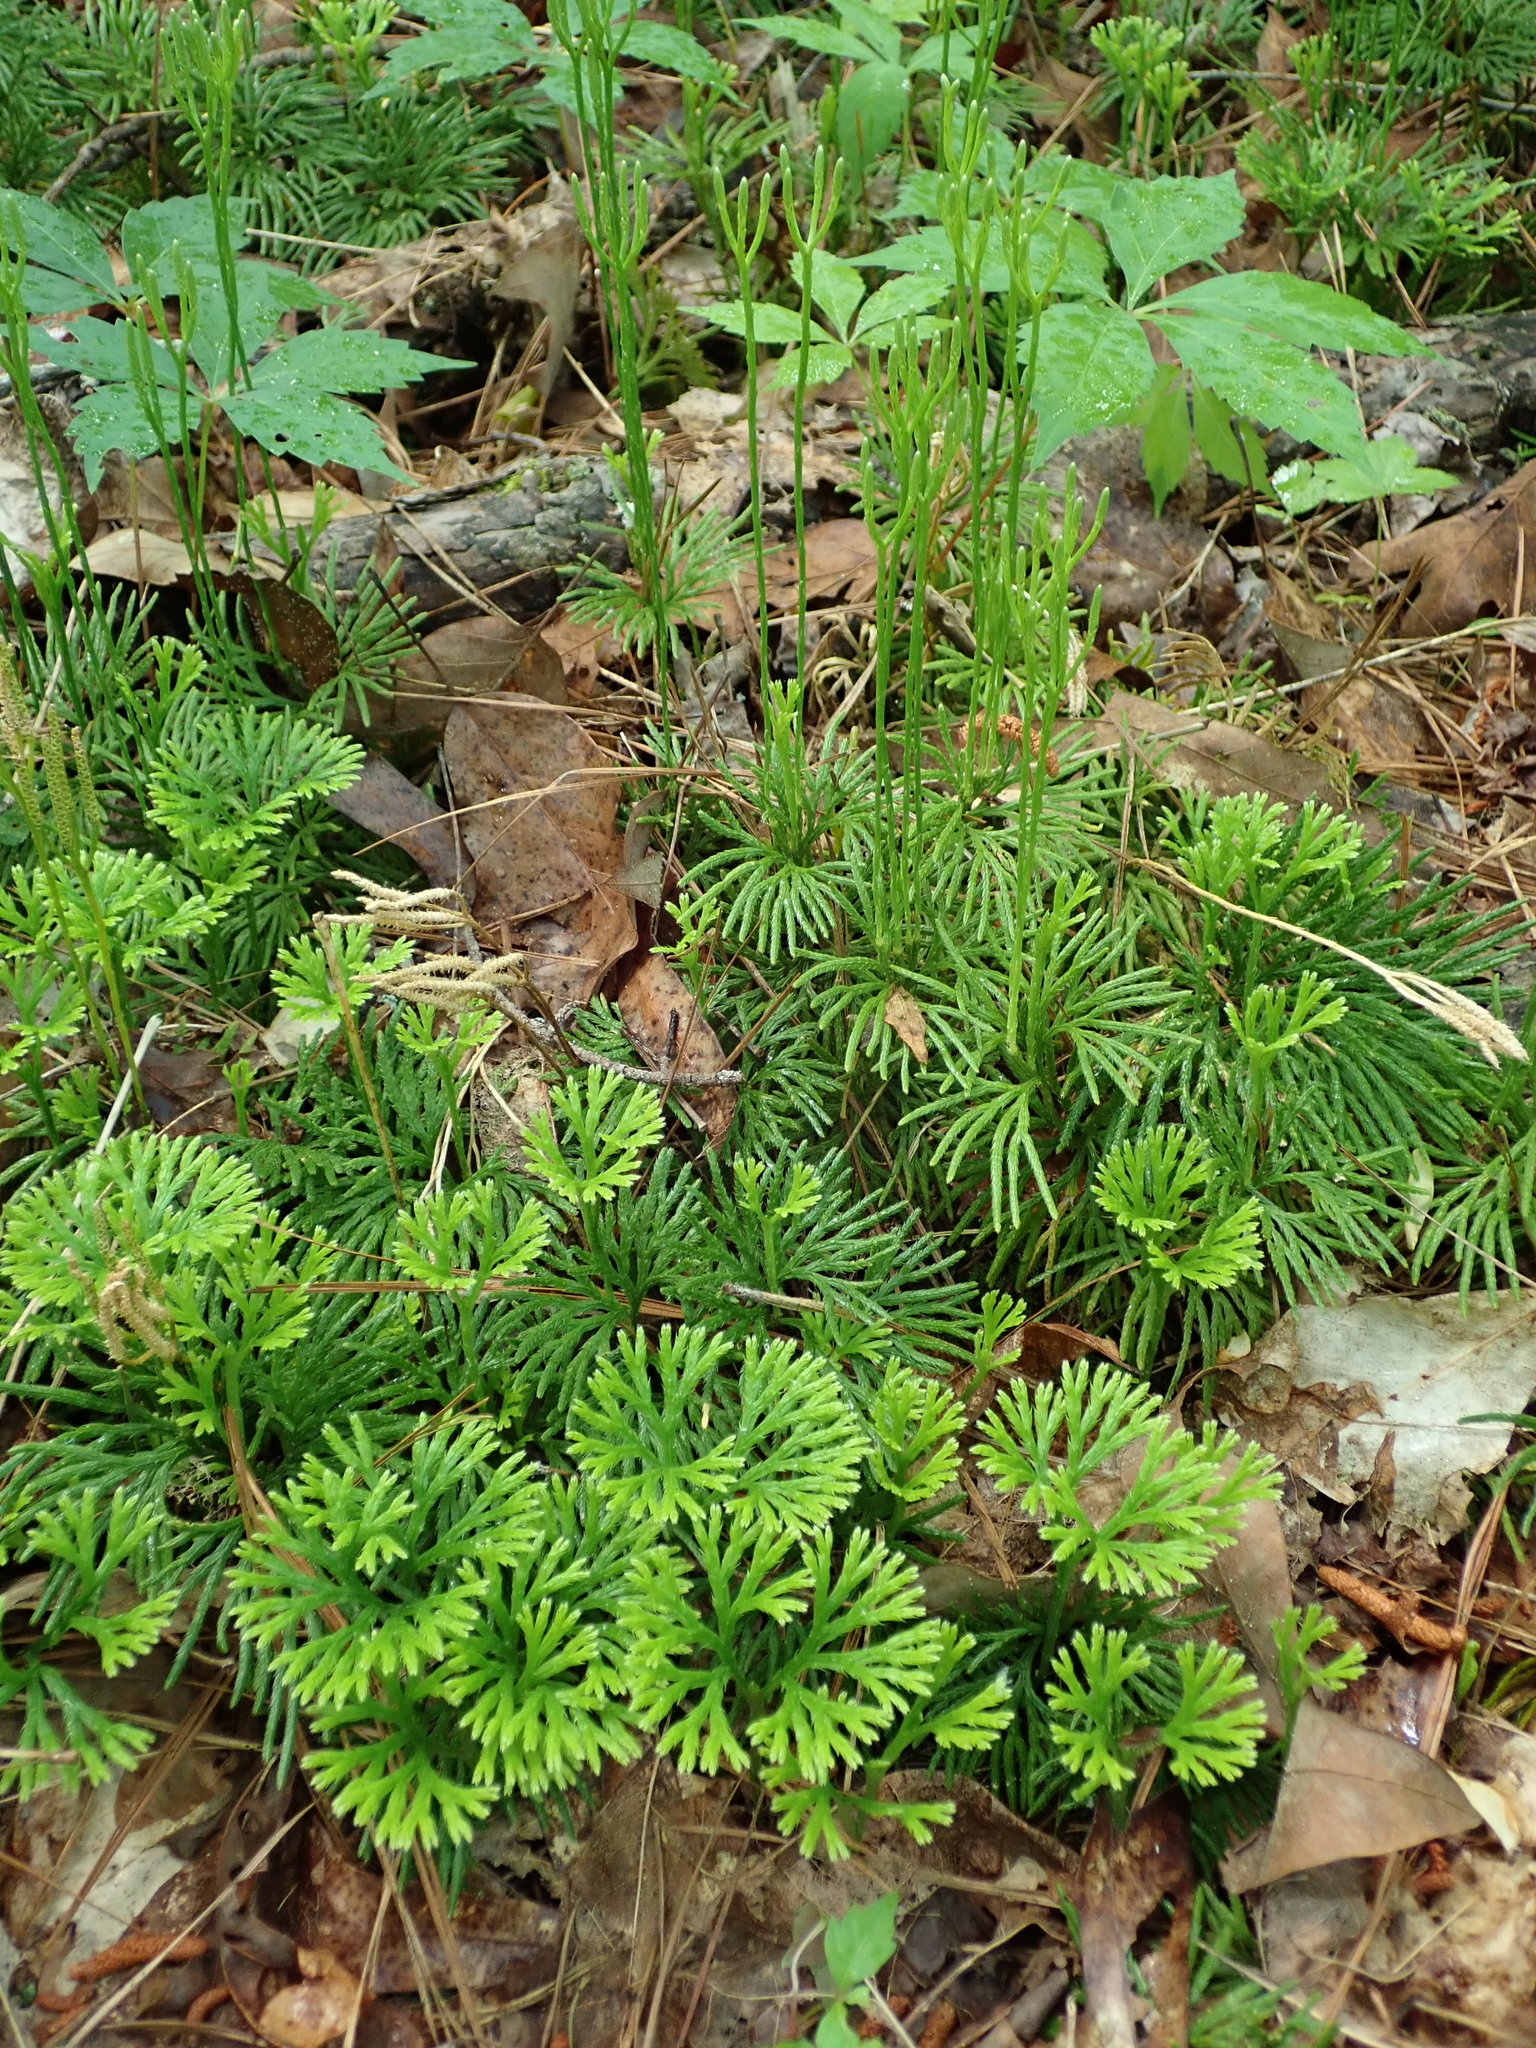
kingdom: Plantae
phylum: Tracheophyta
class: Lycopodiopsida
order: Lycopodiales
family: Lycopodiaceae
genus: Diphasiastrum
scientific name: Diphasiastrum digitatum
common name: Southern running-pine
